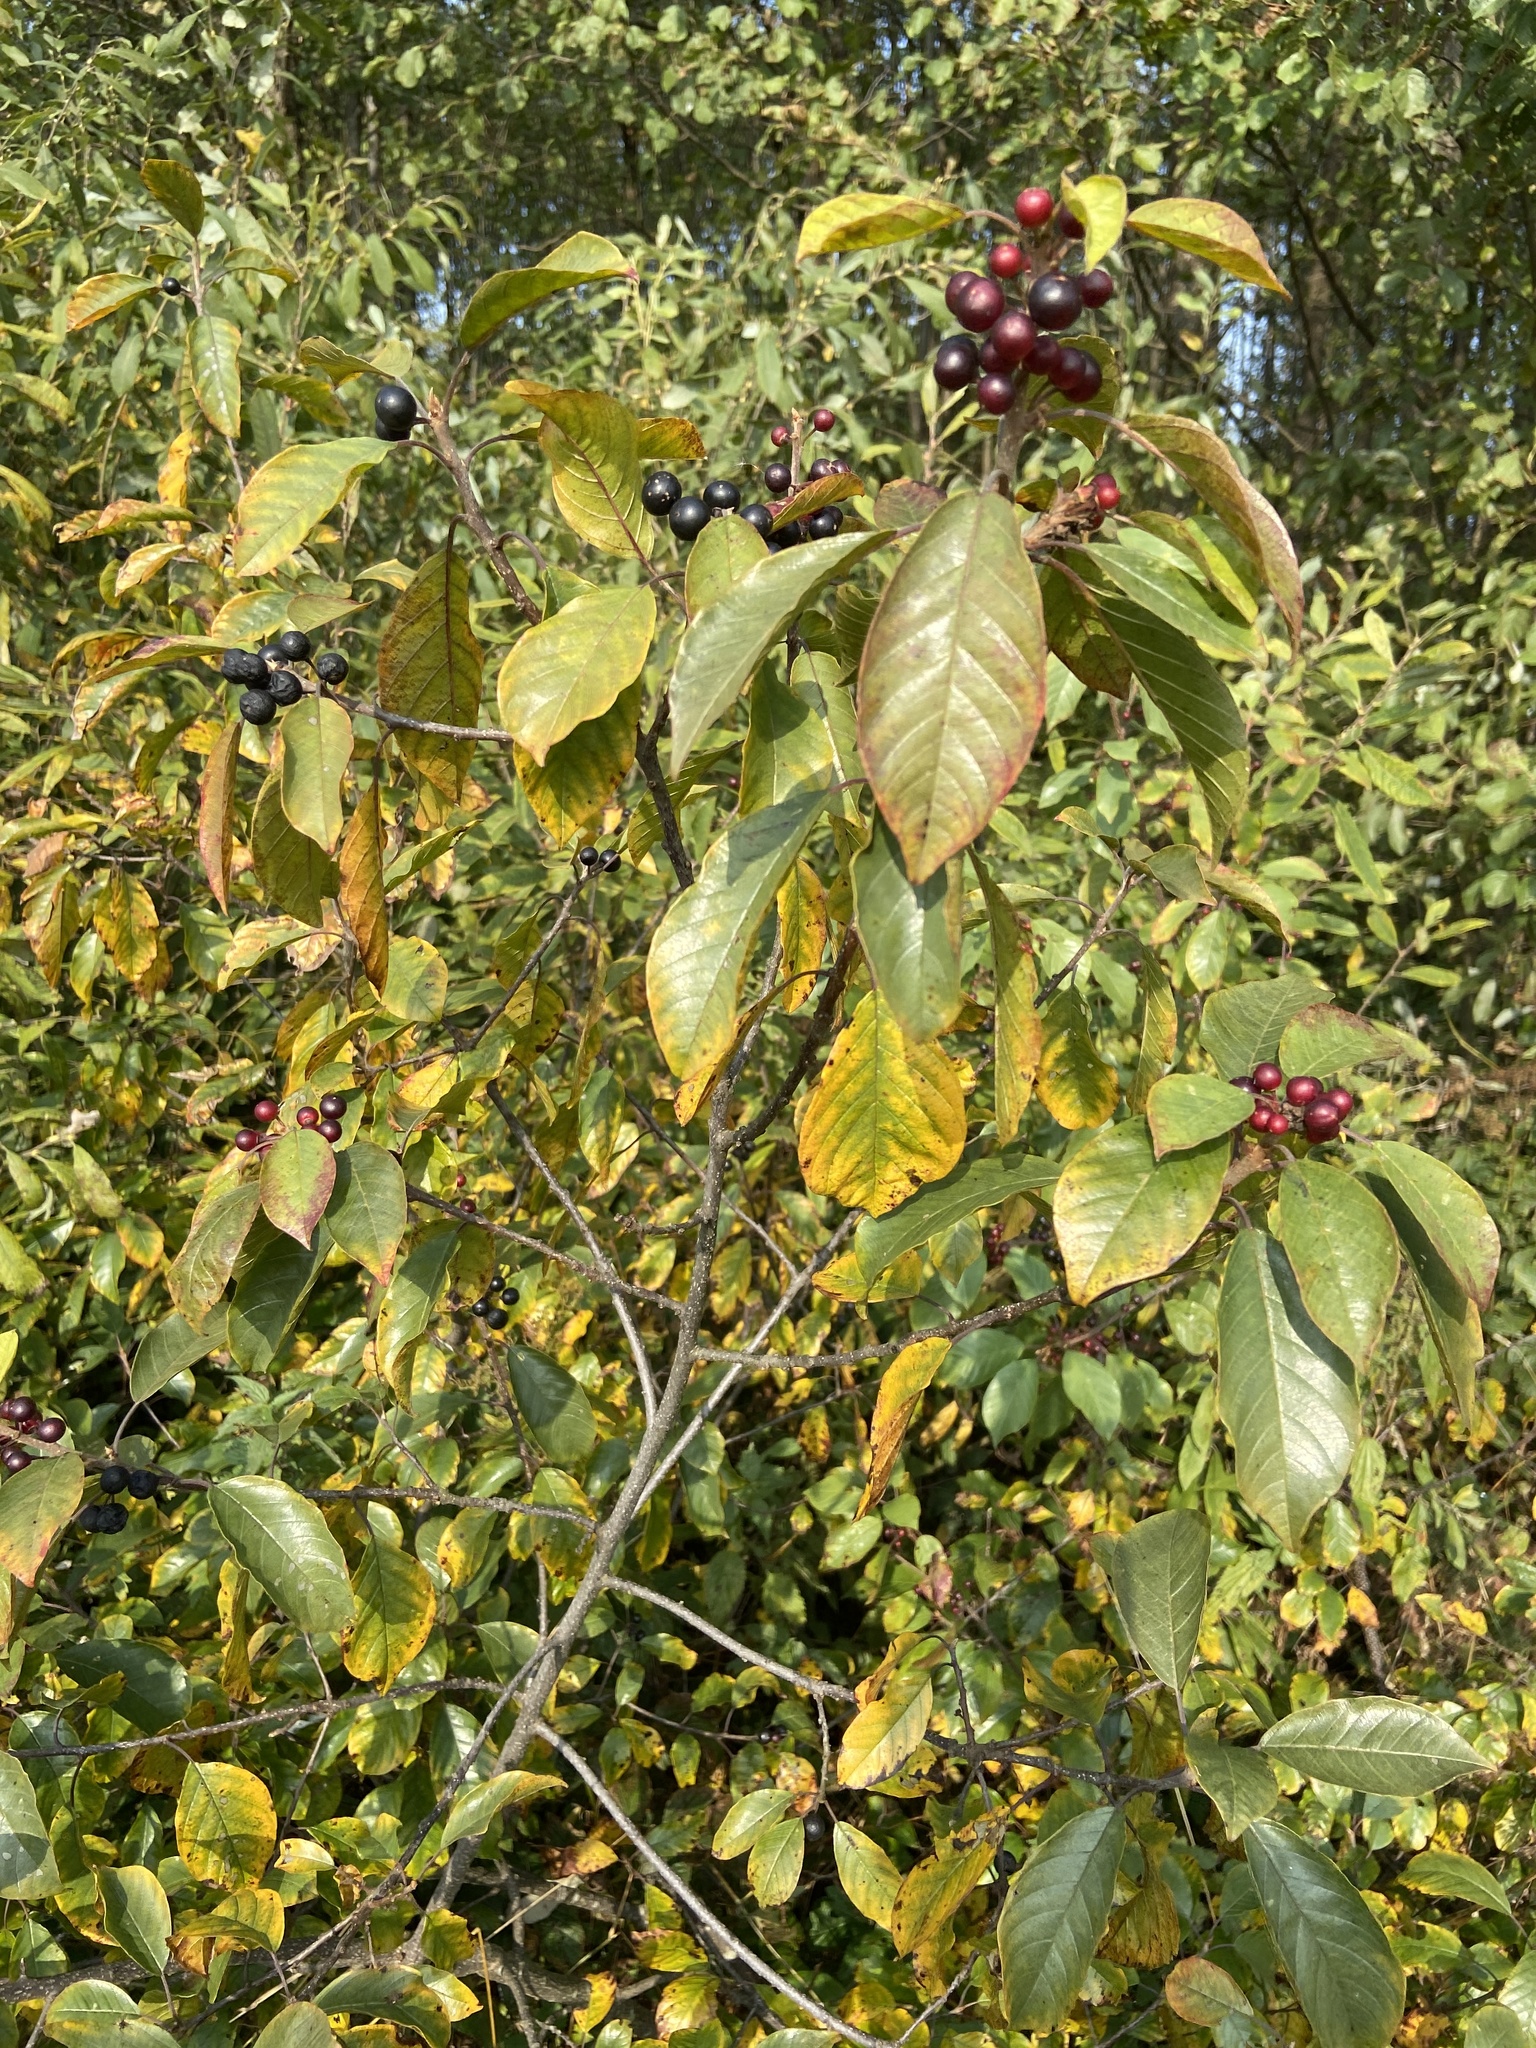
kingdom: Plantae
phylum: Tracheophyta
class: Magnoliopsida
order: Rosales
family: Rhamnaceae
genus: Frangula
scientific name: Frangula alnus
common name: Alder buckthorn
